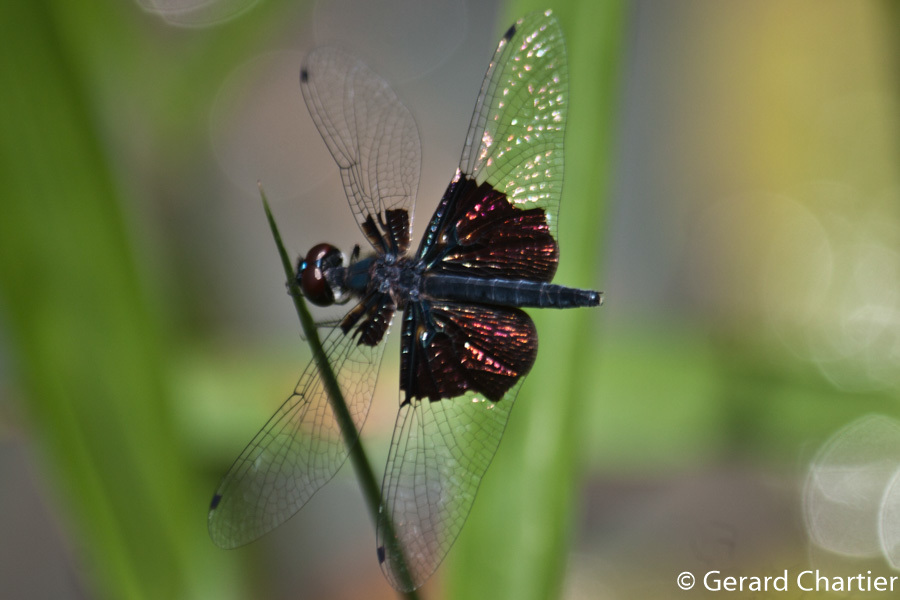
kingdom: Animalia
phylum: Arthropoda
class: Insecta
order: Odonata
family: Libellulidae
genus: Rhyothemis
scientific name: Rhyothemis triangularis
